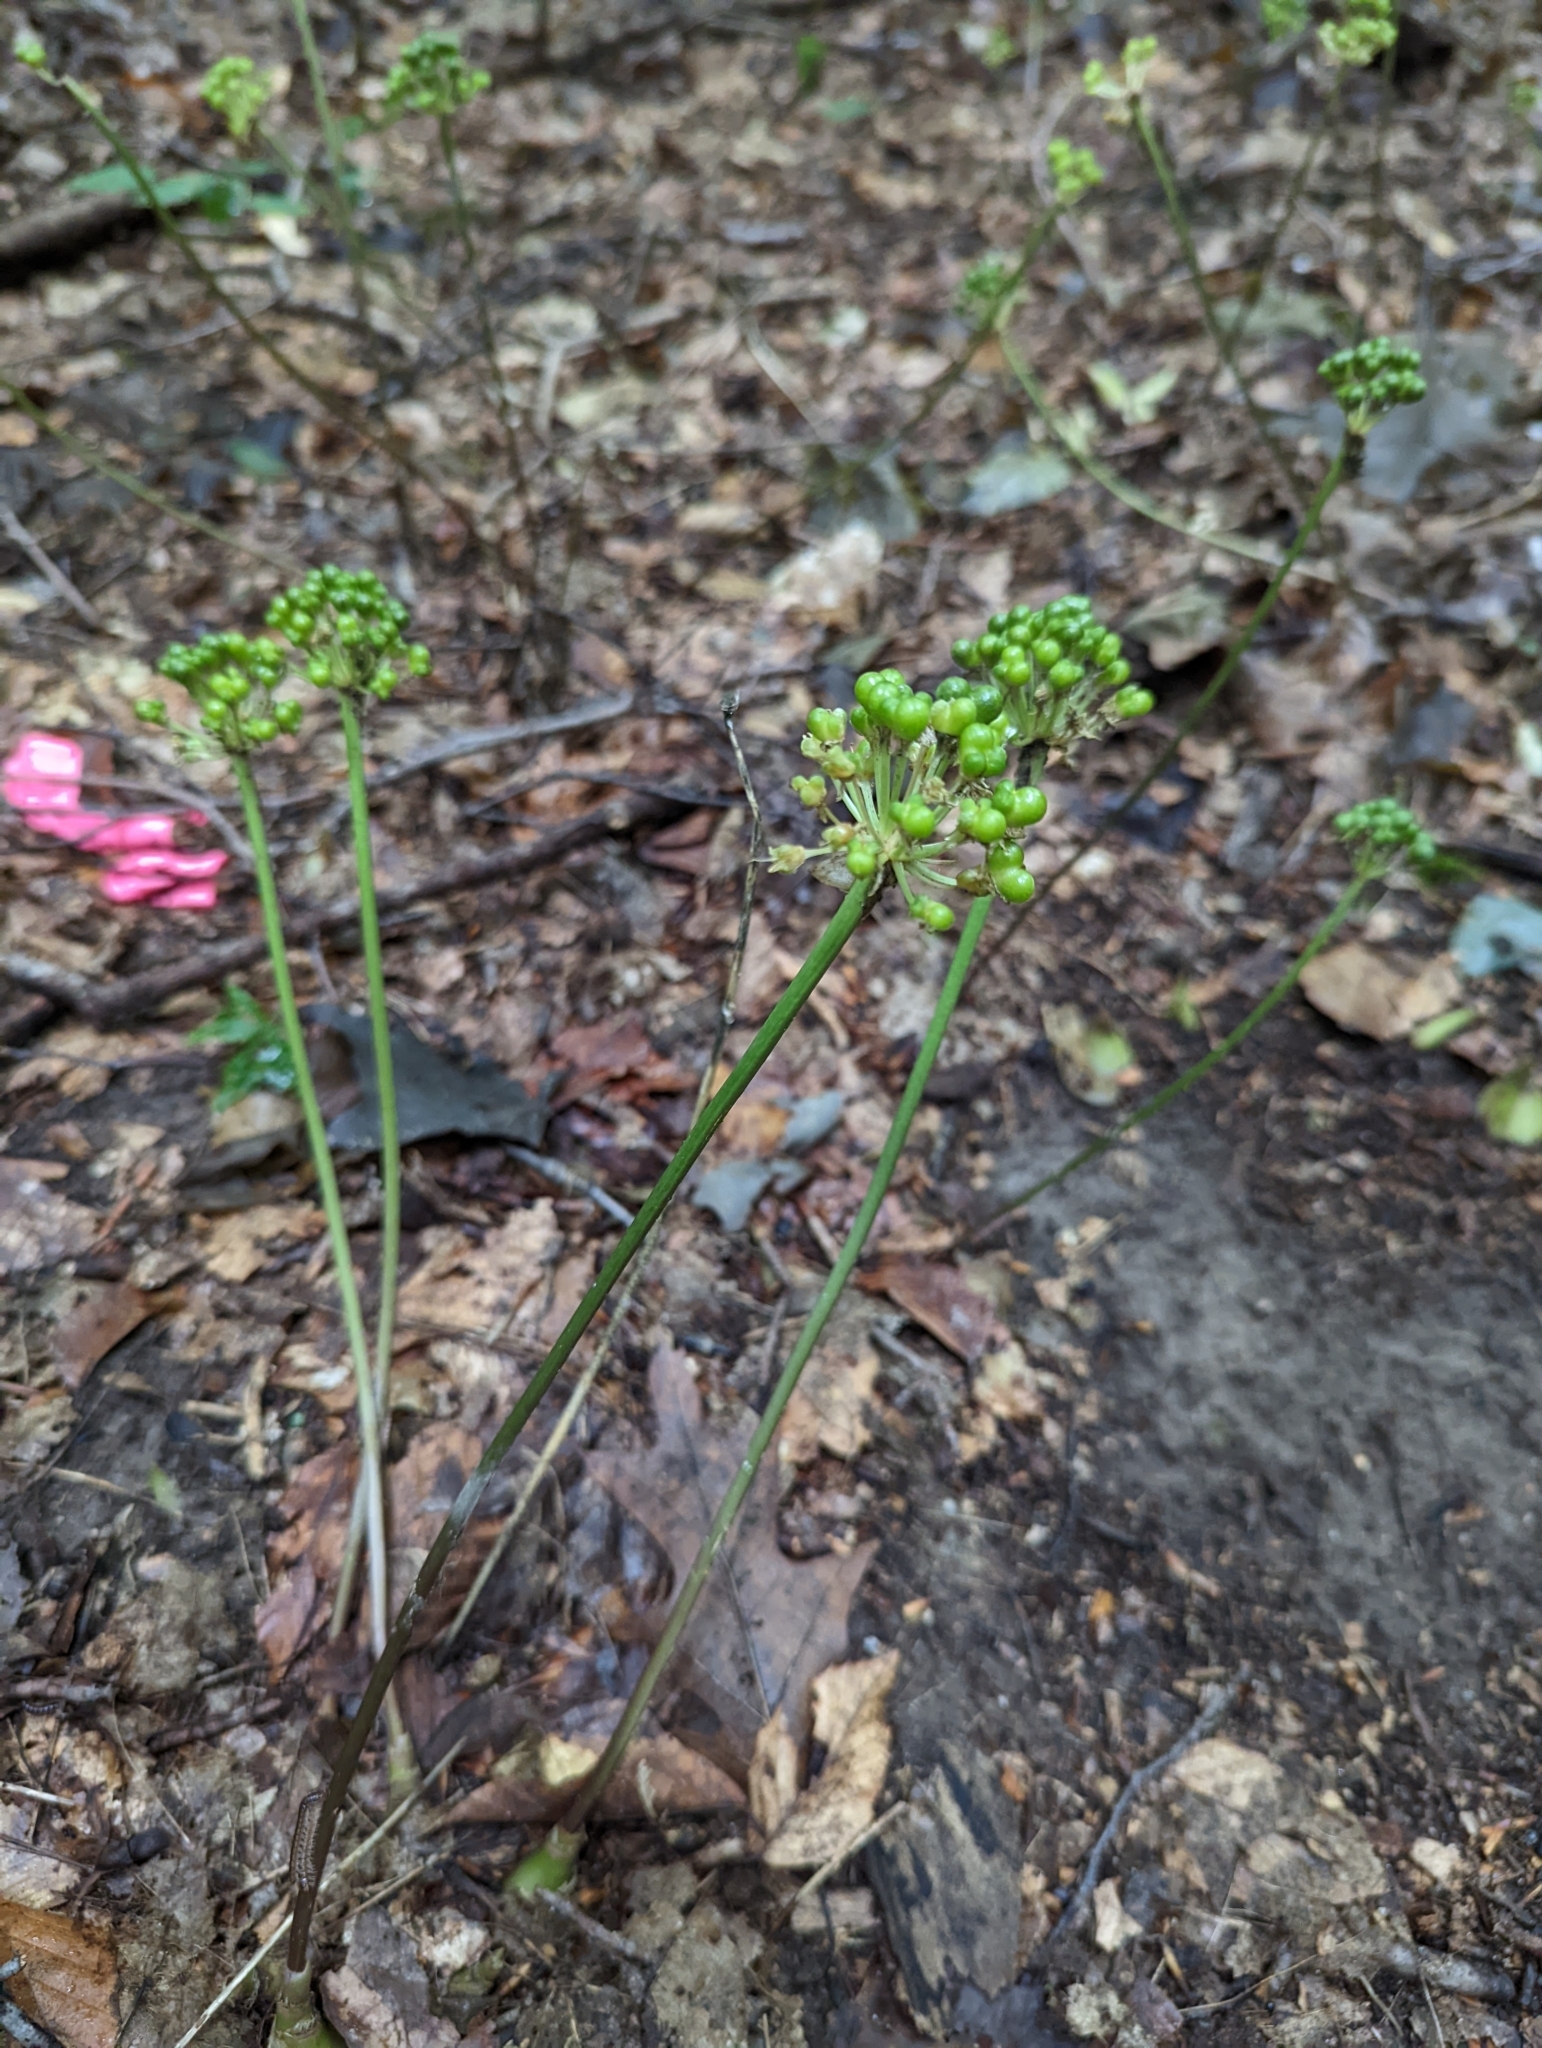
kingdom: Plantae
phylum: Tracheophyta
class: Liliopsida
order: Asparagales
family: Amaryllidaceae
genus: Allium
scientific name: Allium tricoccum
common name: Ramp
